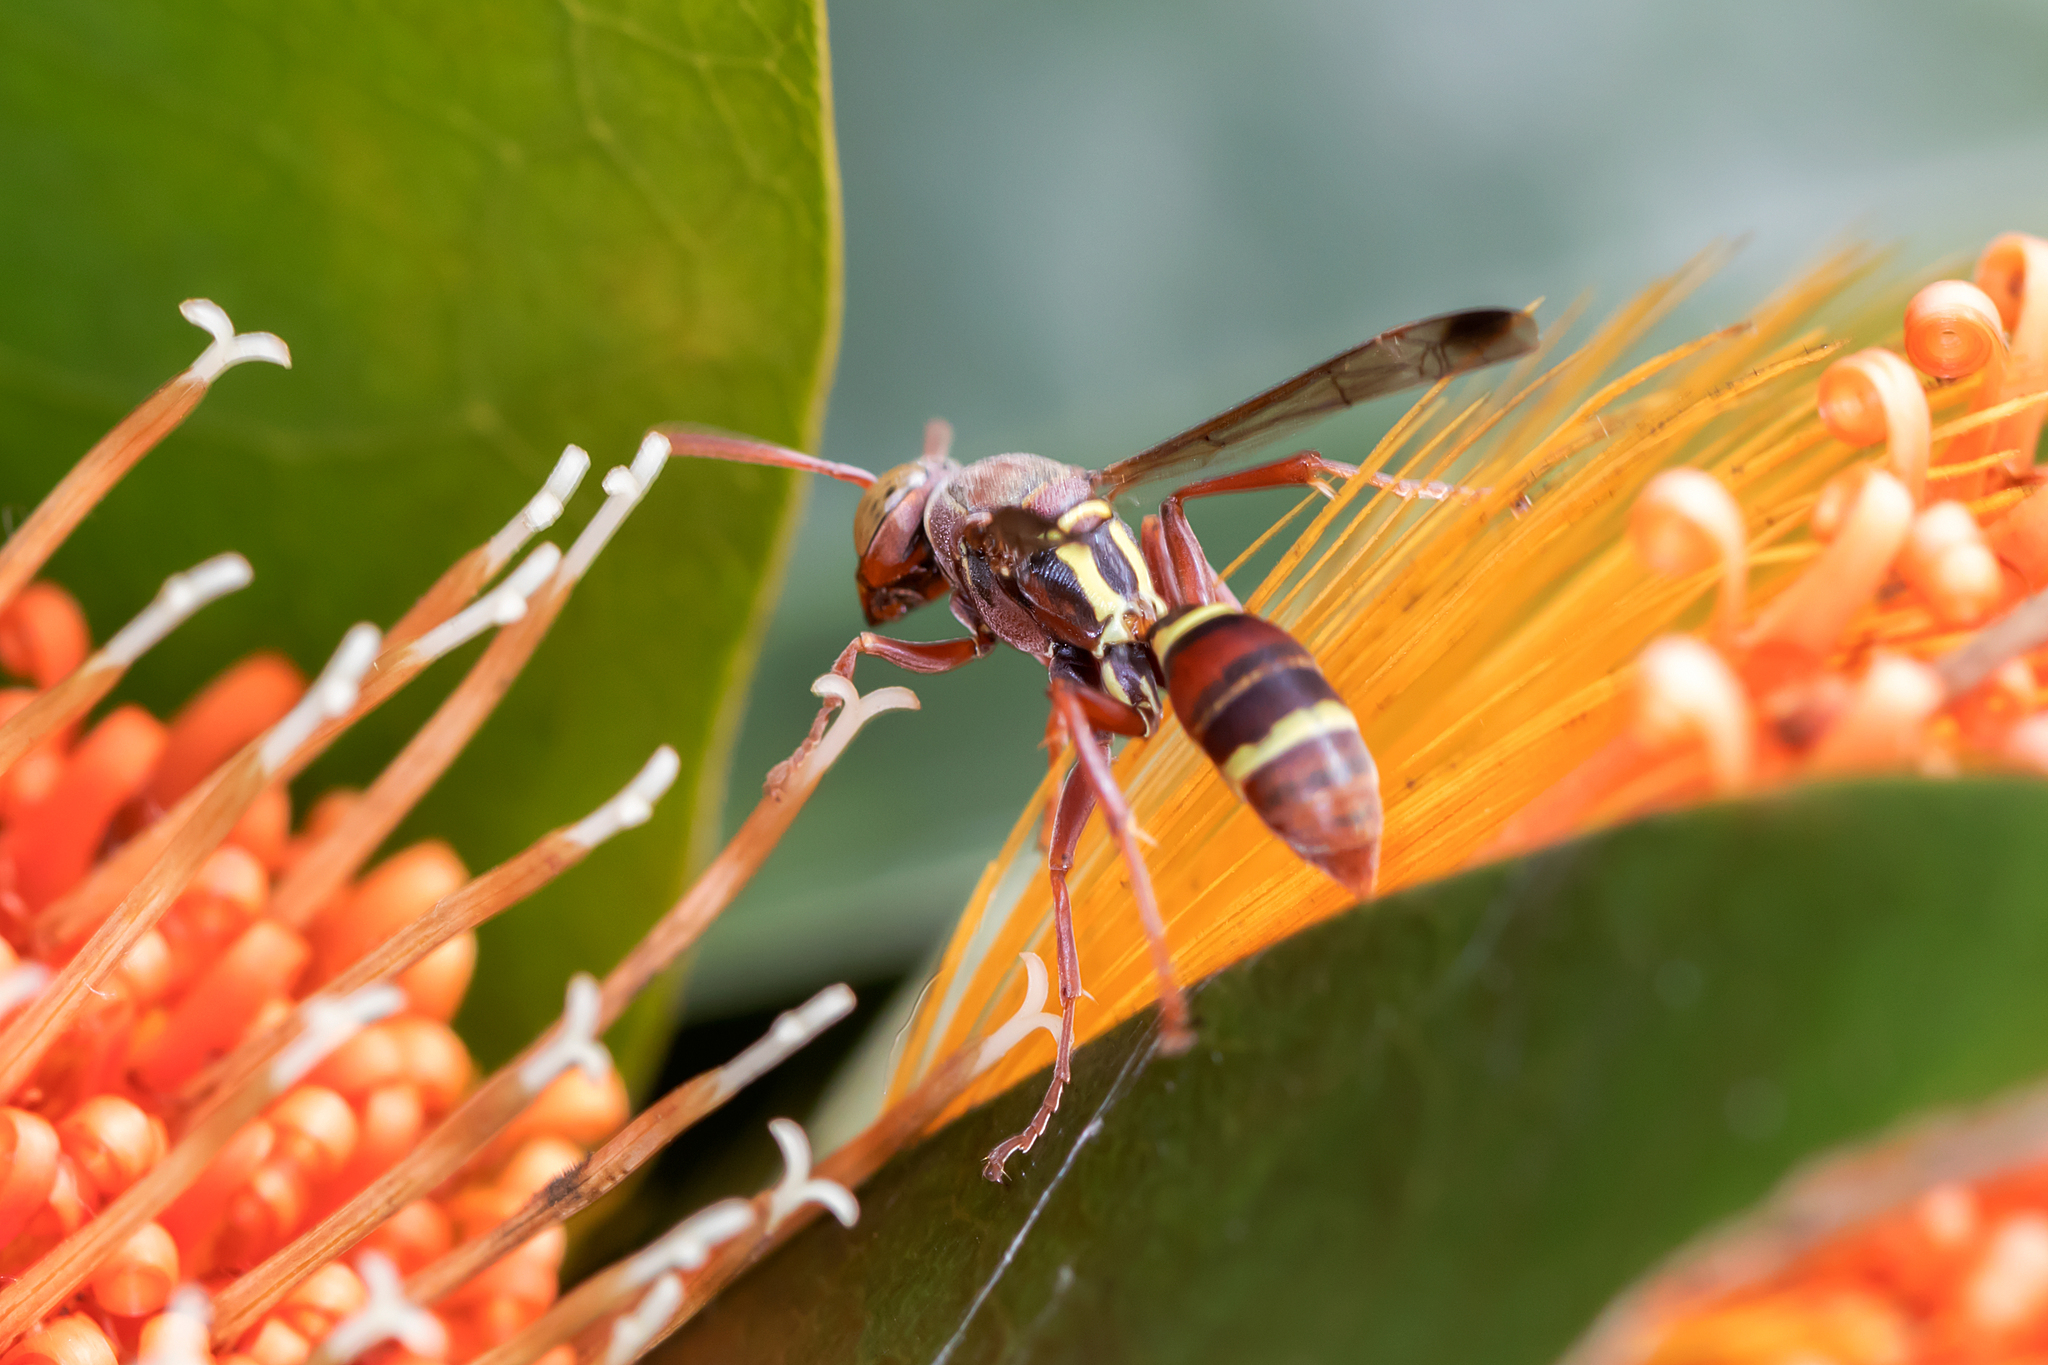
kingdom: Animalia
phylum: Arthropoda
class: Insecta
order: Hymenoptera
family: Eumenidae
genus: Polistes
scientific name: Polistes stigma
